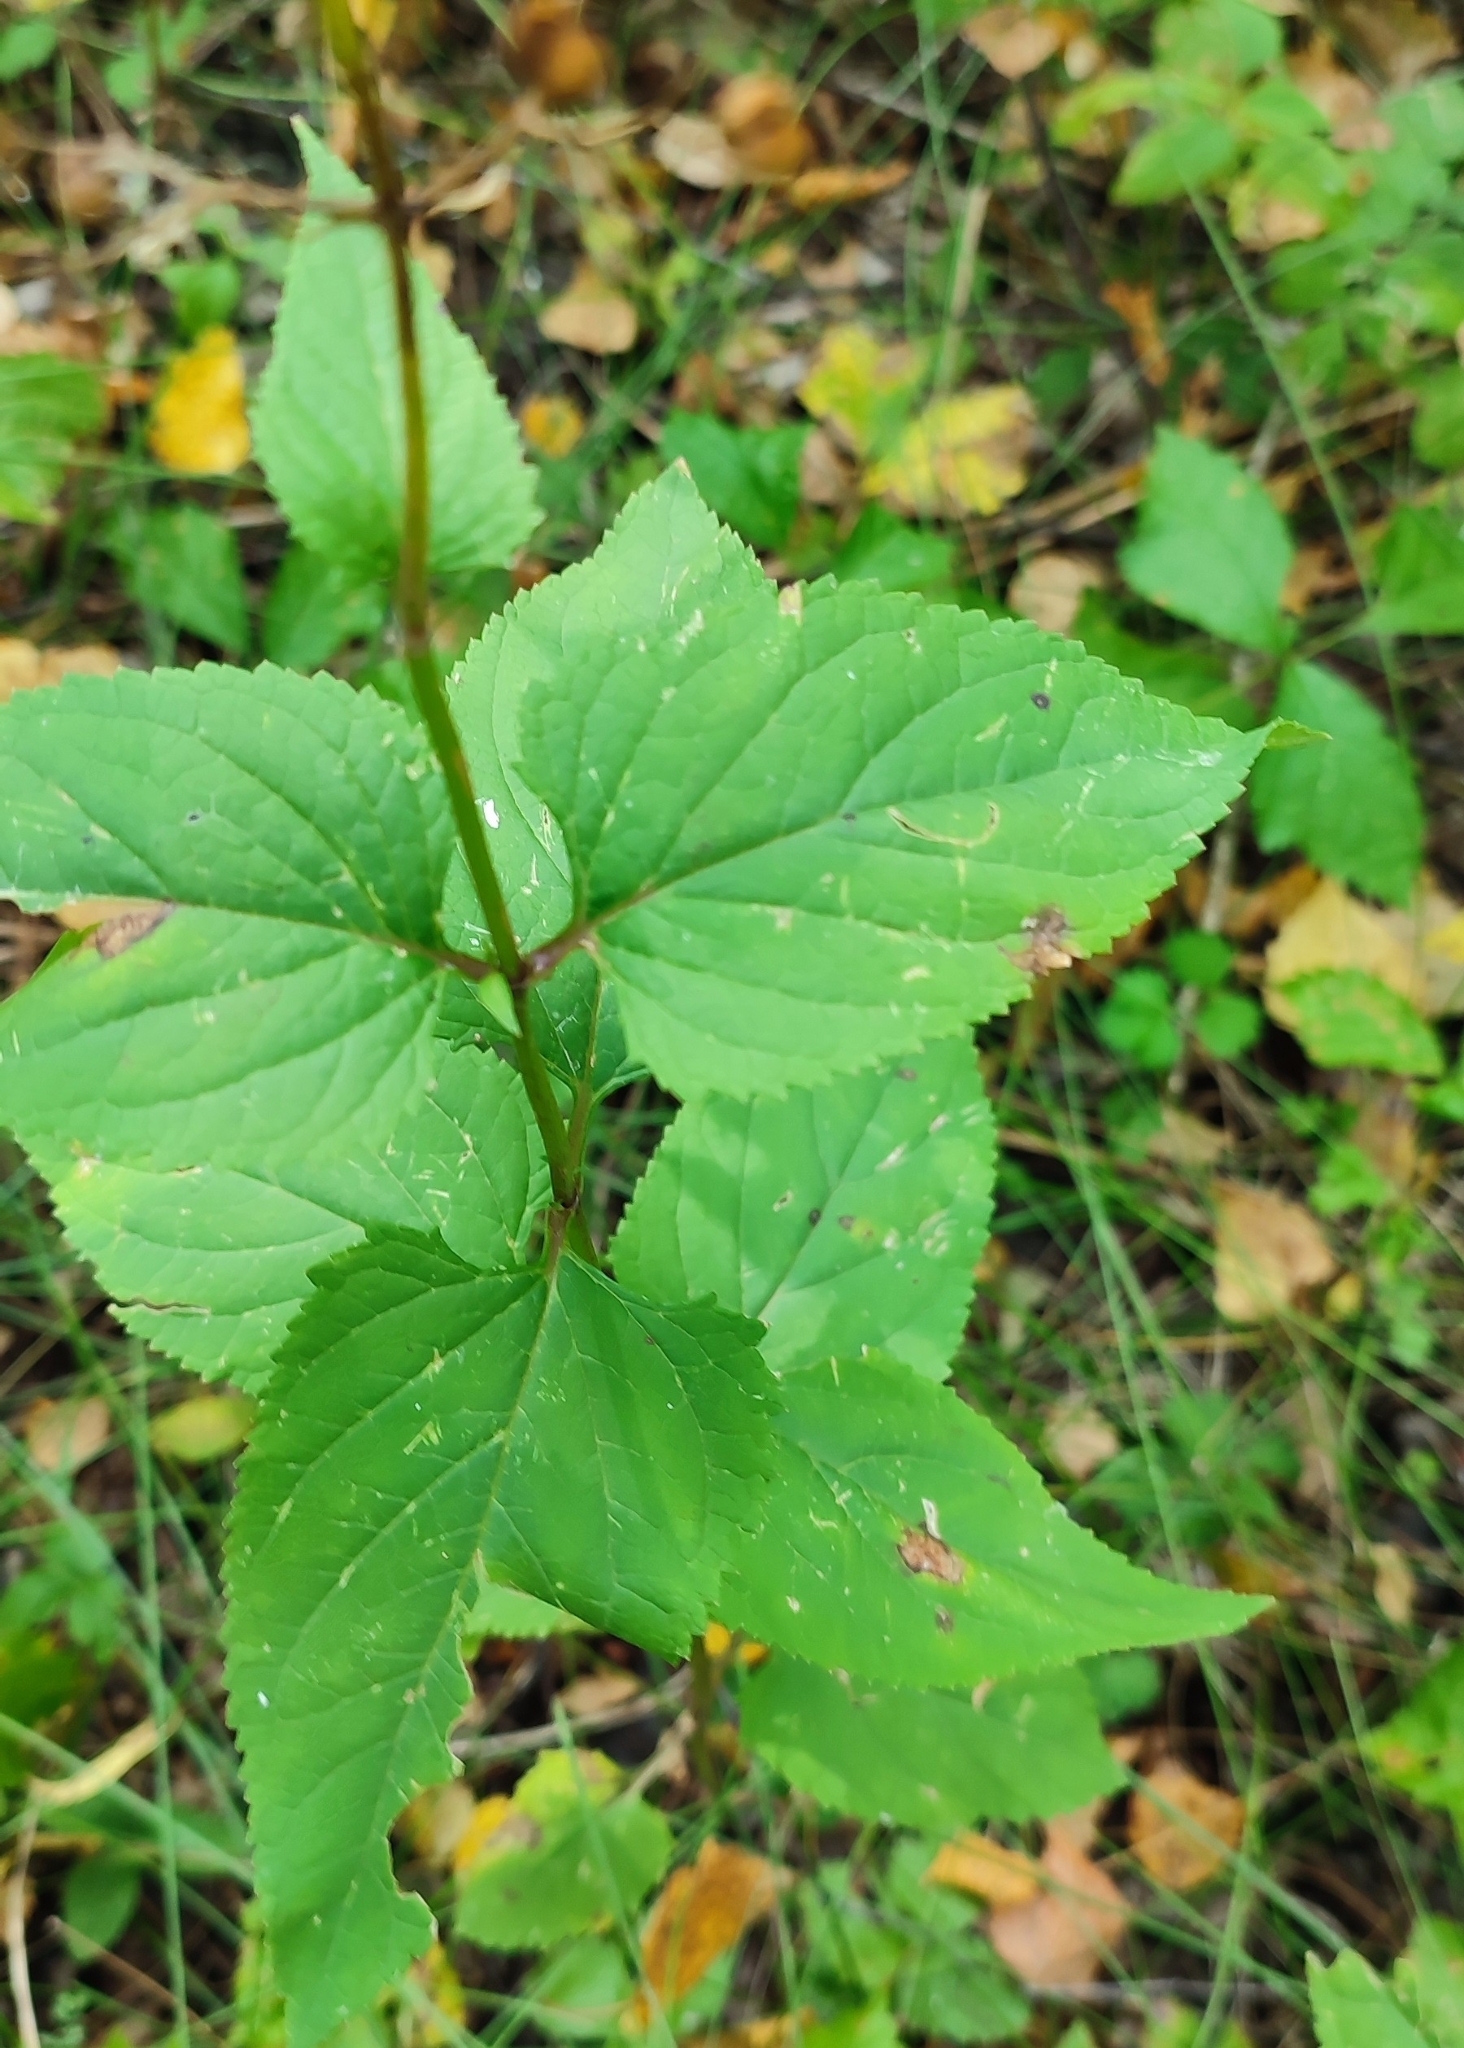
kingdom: Plantae
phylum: Tracheophyta
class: Magnoliopsida
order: Lamiales
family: Scrophulariaceae
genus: Scrophularia
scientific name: Scrophularia nodosa
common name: Common figwort
